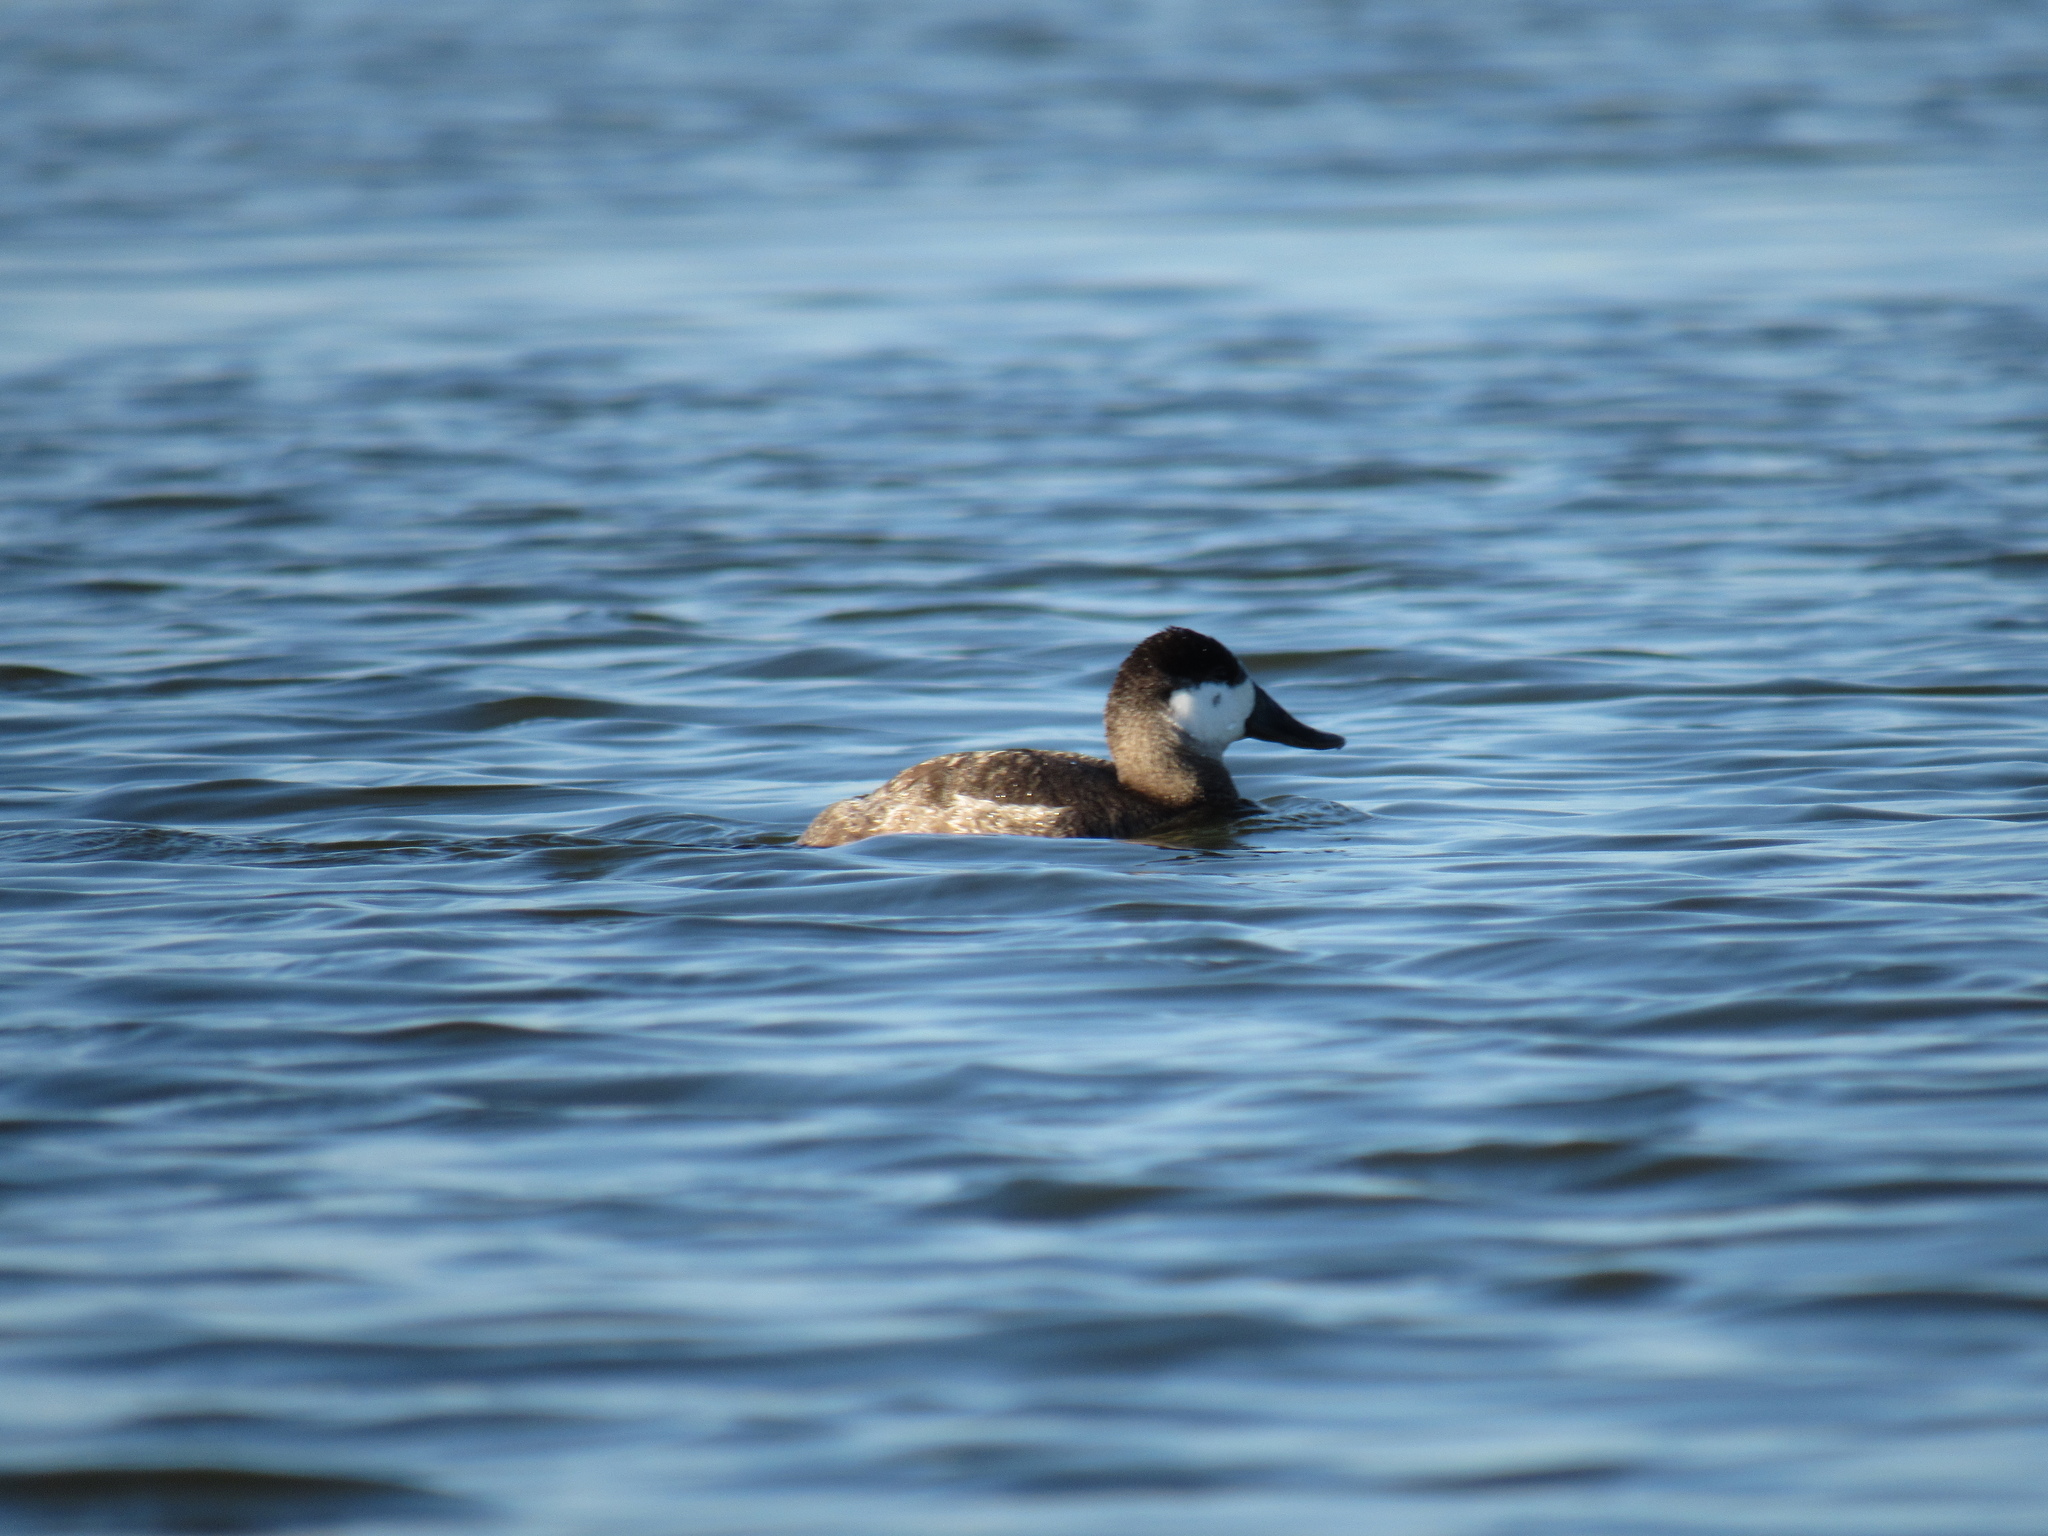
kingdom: Animalia
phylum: Chordata
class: Aves
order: Anseriformes
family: Anatidae
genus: Oxyura
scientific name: Oxyura jamaicensis
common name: Ruddy duck
